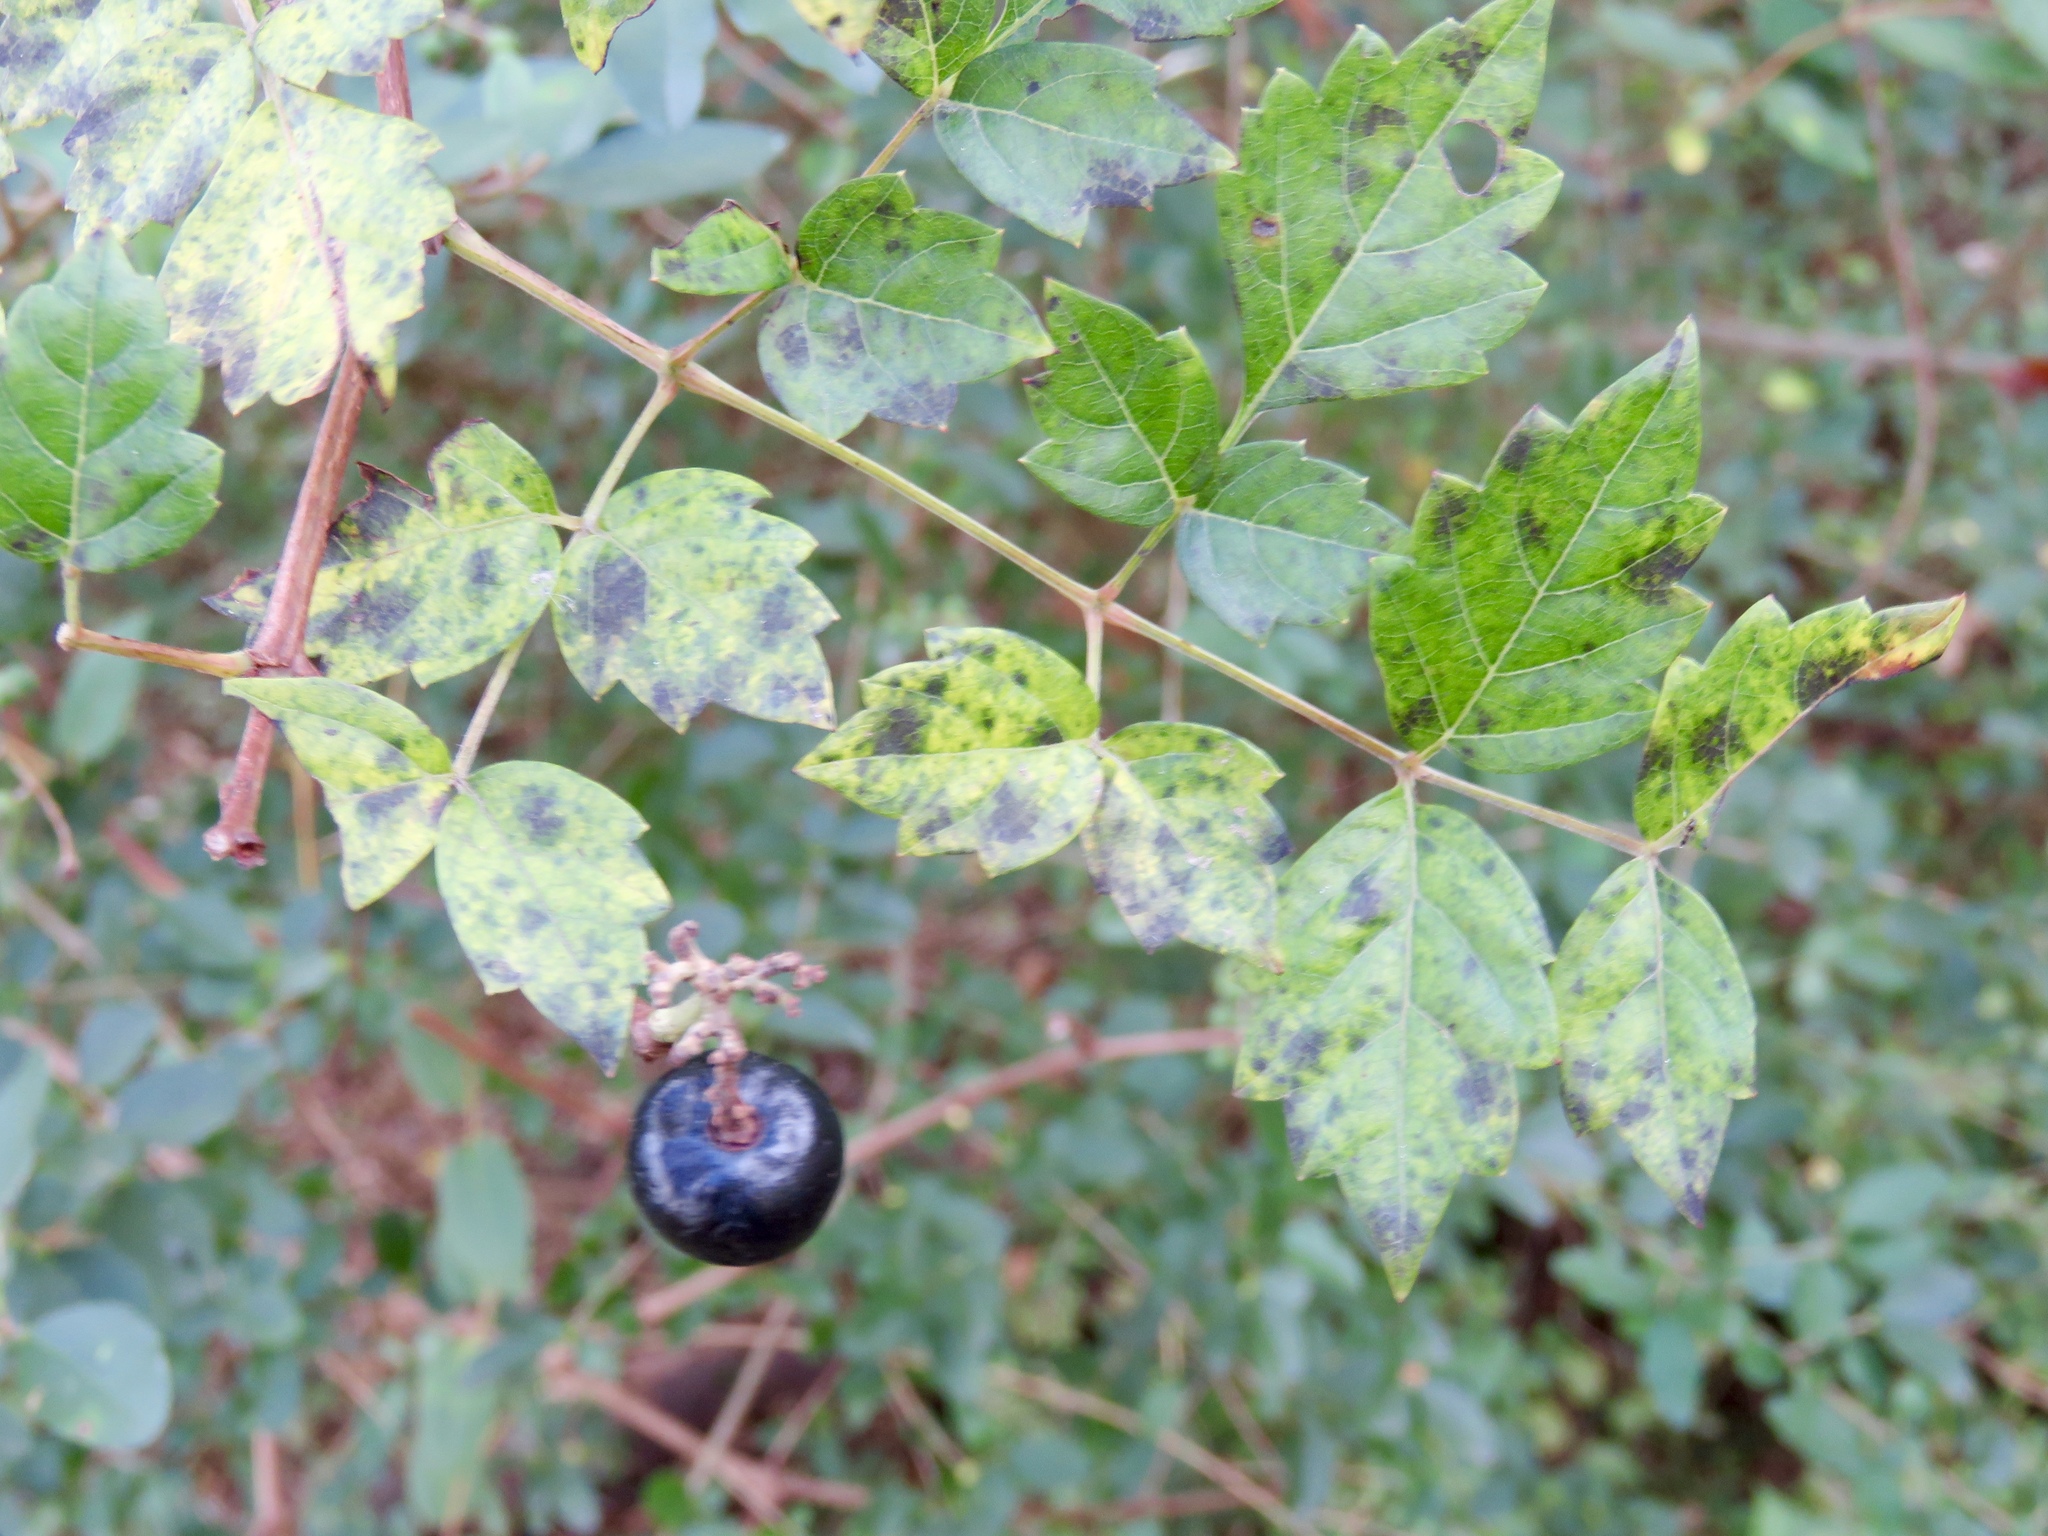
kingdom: Plantae
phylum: Tracheophyta
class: Magnoliopsida
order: Vitales
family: Vitaceae
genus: Nekemias
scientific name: Nekemias arborea
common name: Peppervine
